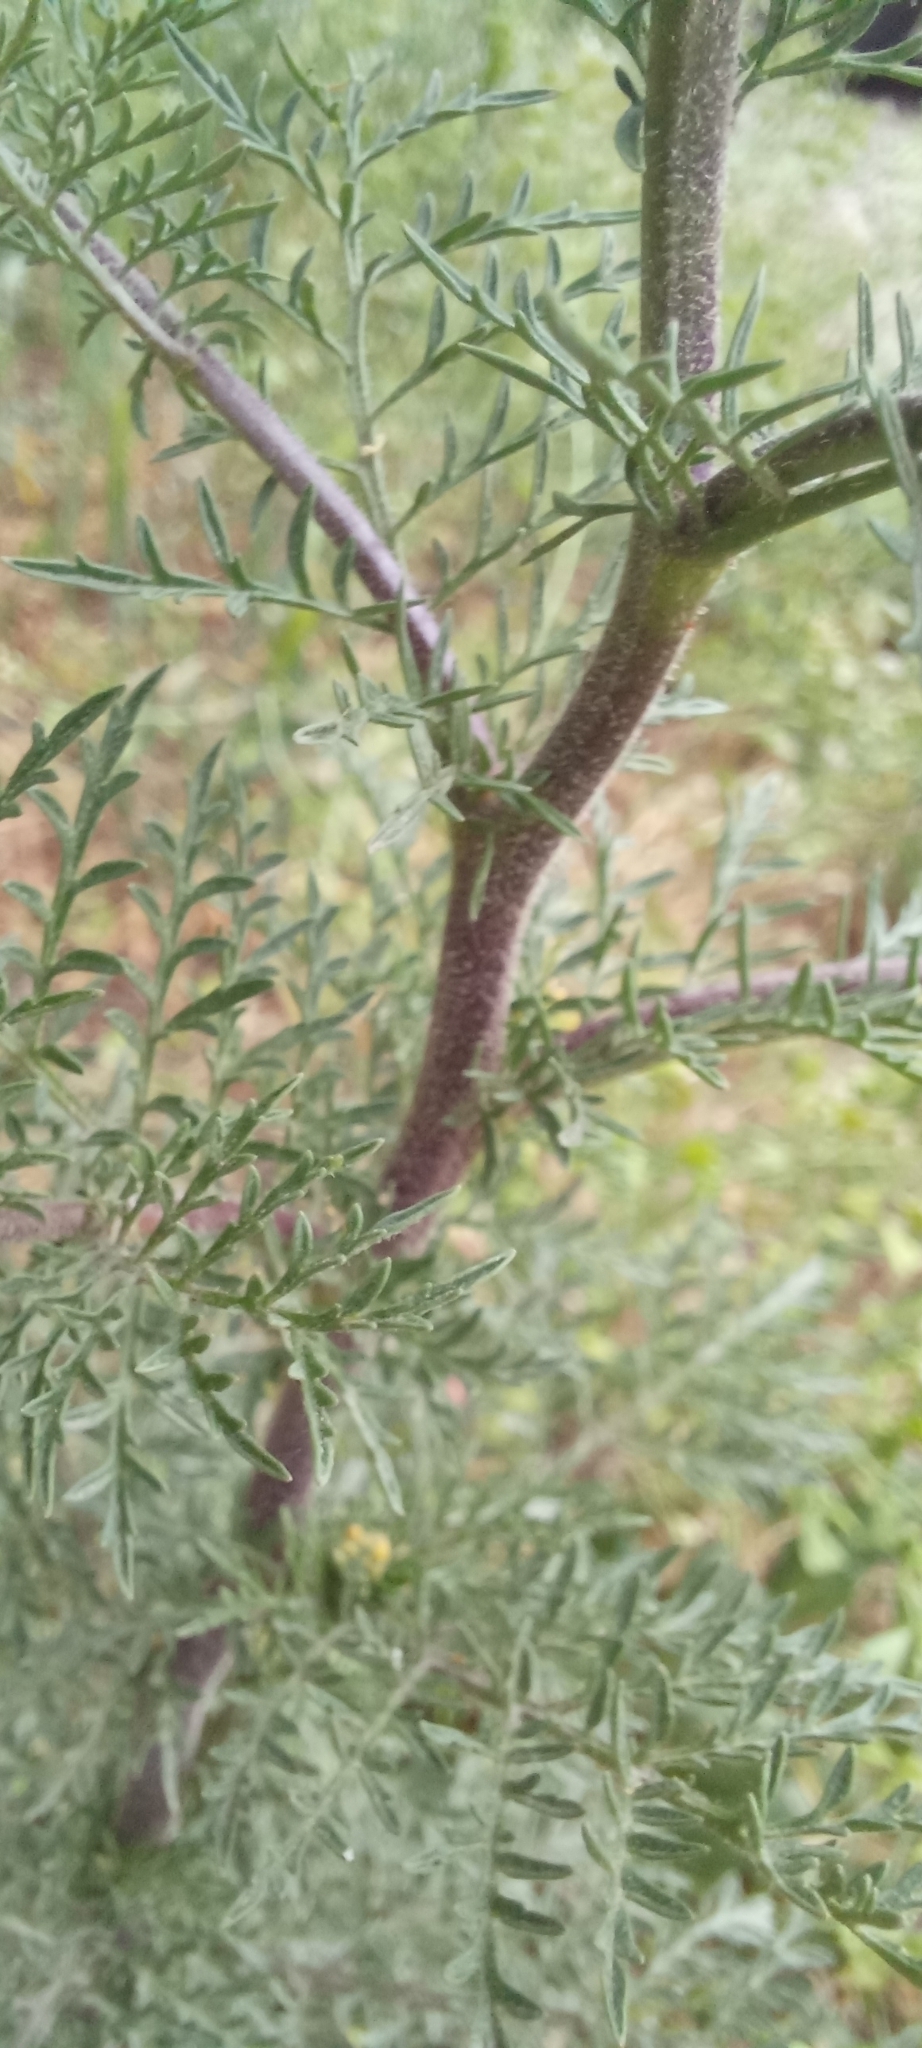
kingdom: Plantae
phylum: Tracheophyta
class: Magnoliopsida
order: Brassicales
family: Brassicaceae
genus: Descurainia
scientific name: Descurainia sophia
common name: Flixweed
